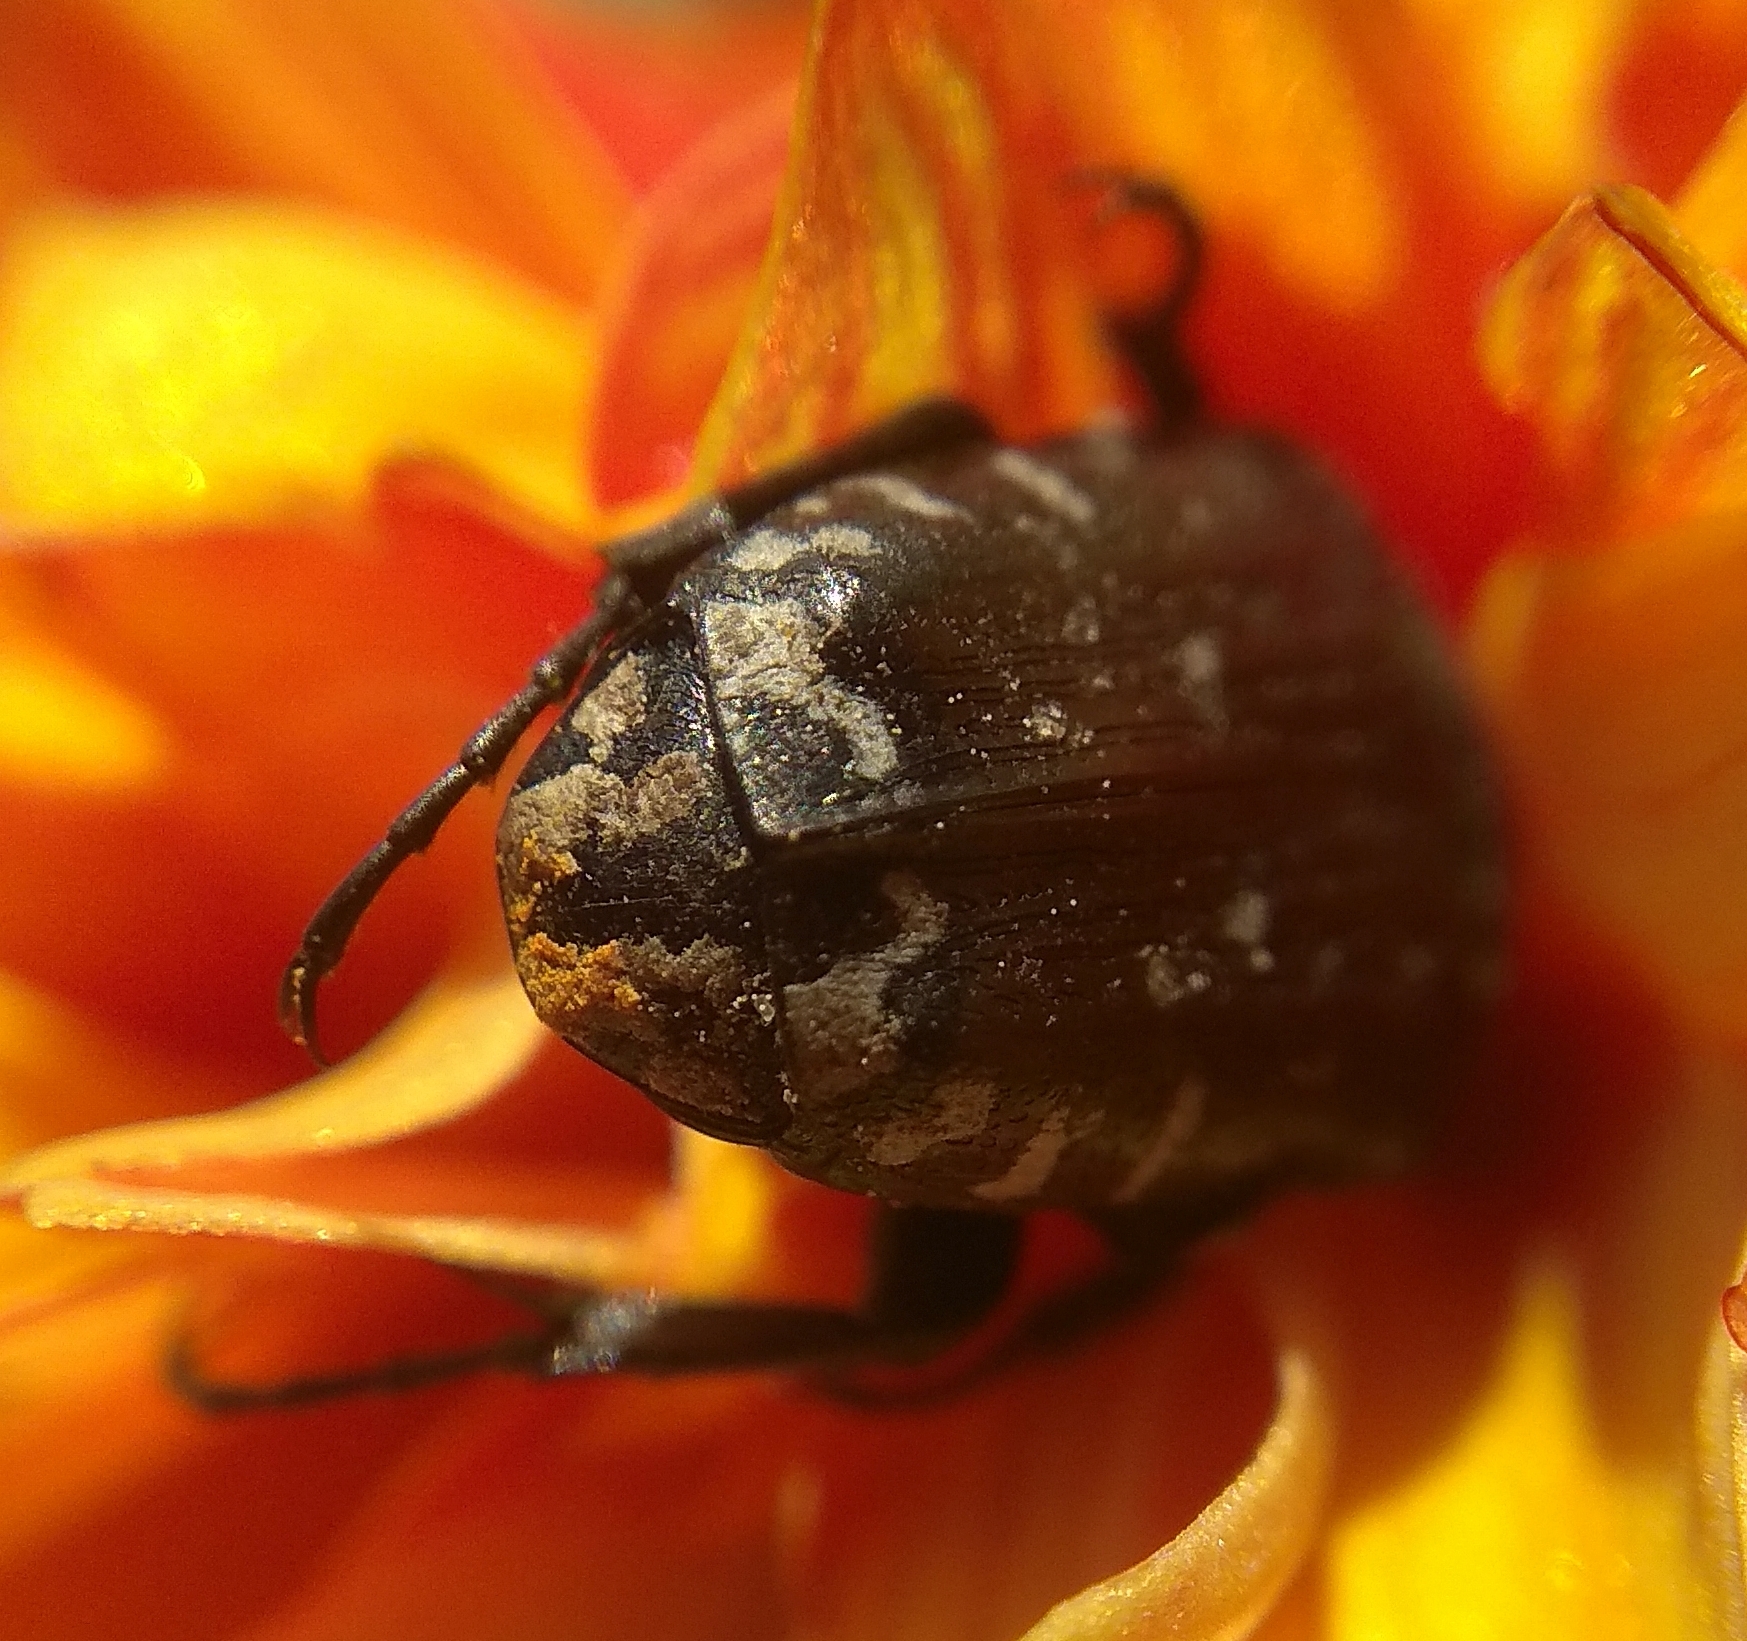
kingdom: Animalia
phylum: Arthropoda
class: Insecta
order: Coleoptera
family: Scarabaeidae
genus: Oxythyrea
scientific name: Oxythyrea funesta
